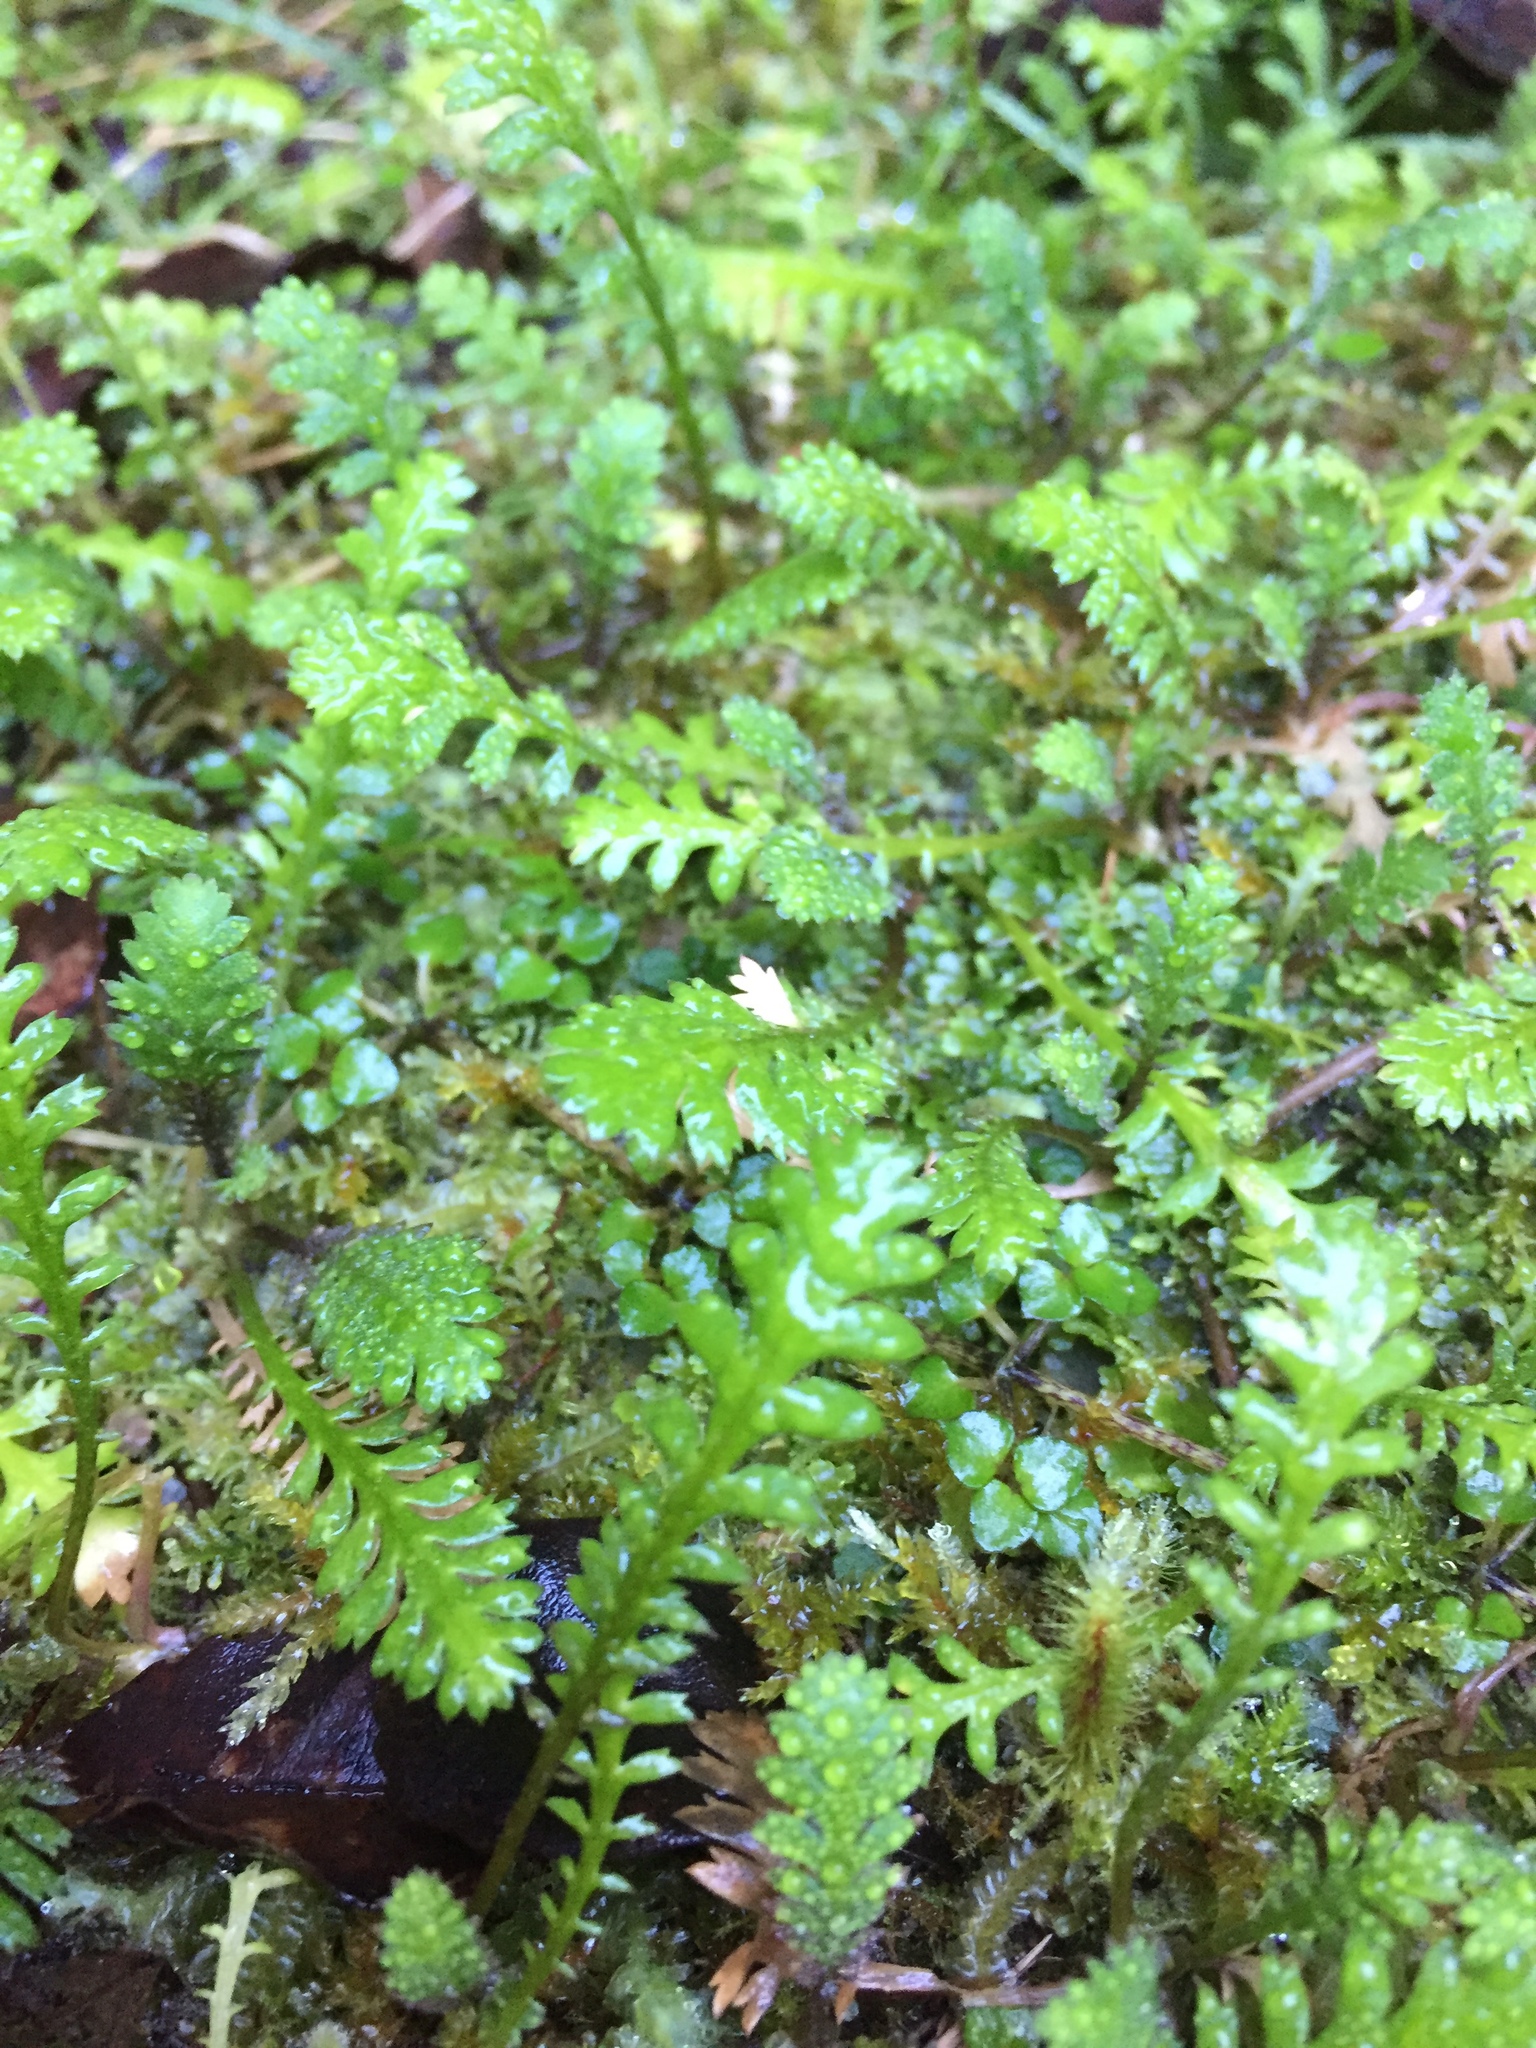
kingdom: Plantae
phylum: Tracheophyta
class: Magnoliopsida
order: Asterales
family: Asteraceae
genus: Leptinella
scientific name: Leptinella squalida
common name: New zealand brass-buttons
